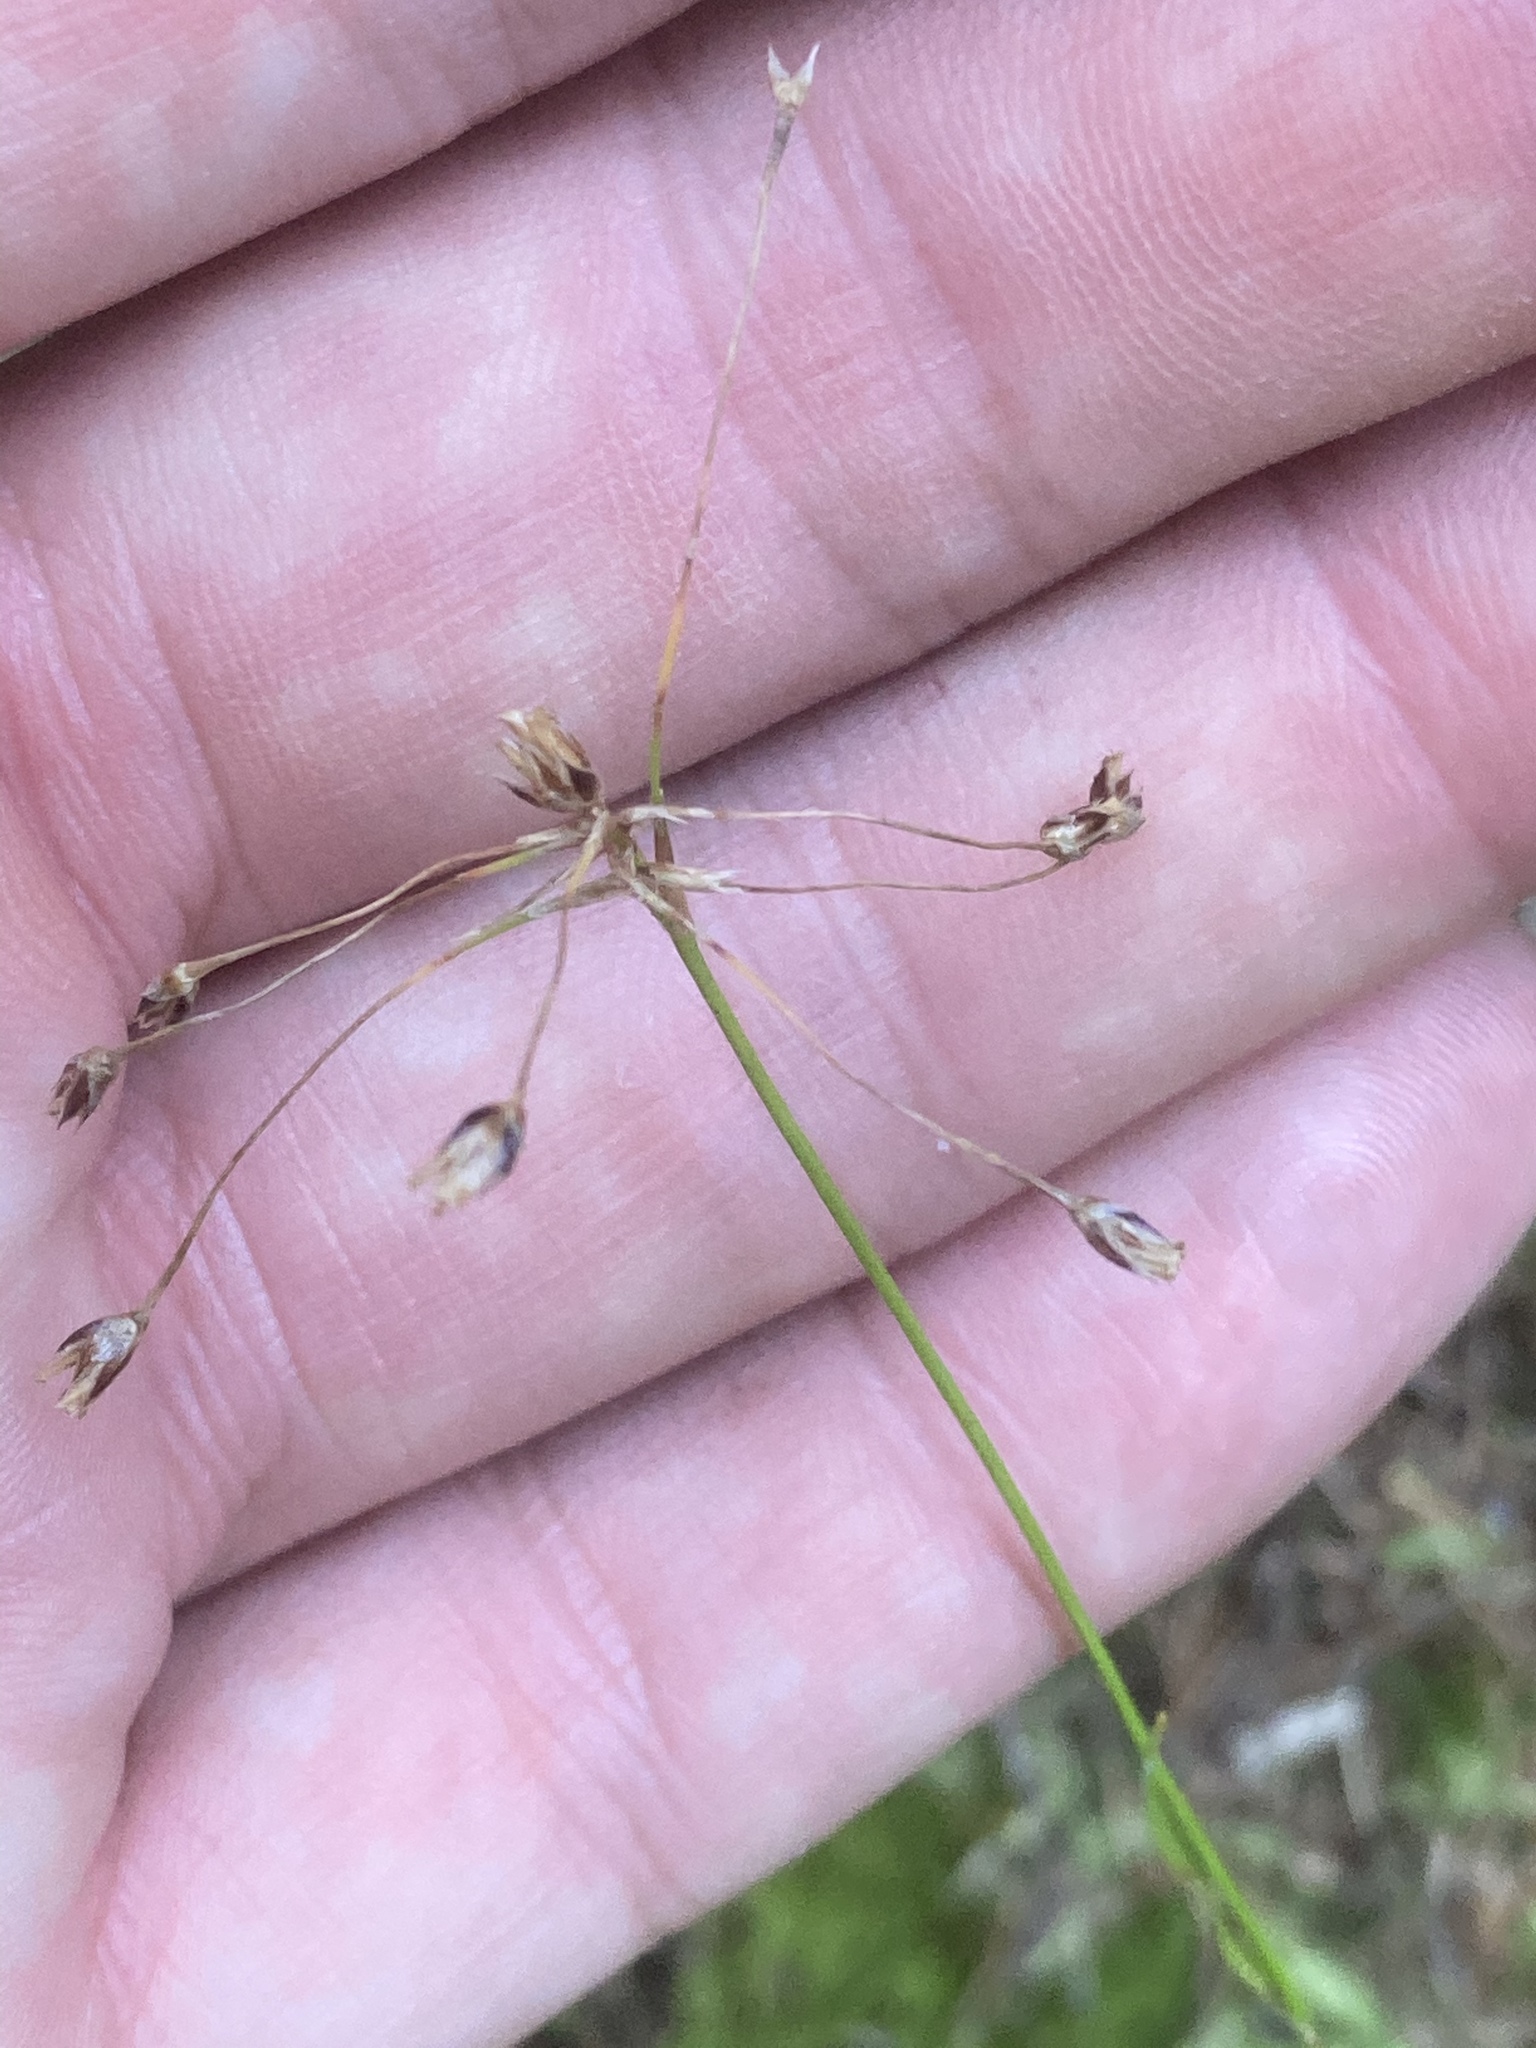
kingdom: Plantae
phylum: Tracheophyta
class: Liliopsida
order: Poales
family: Juncaceae
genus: Luzula
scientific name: Luzula pilosa
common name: Hairy wood-rush
